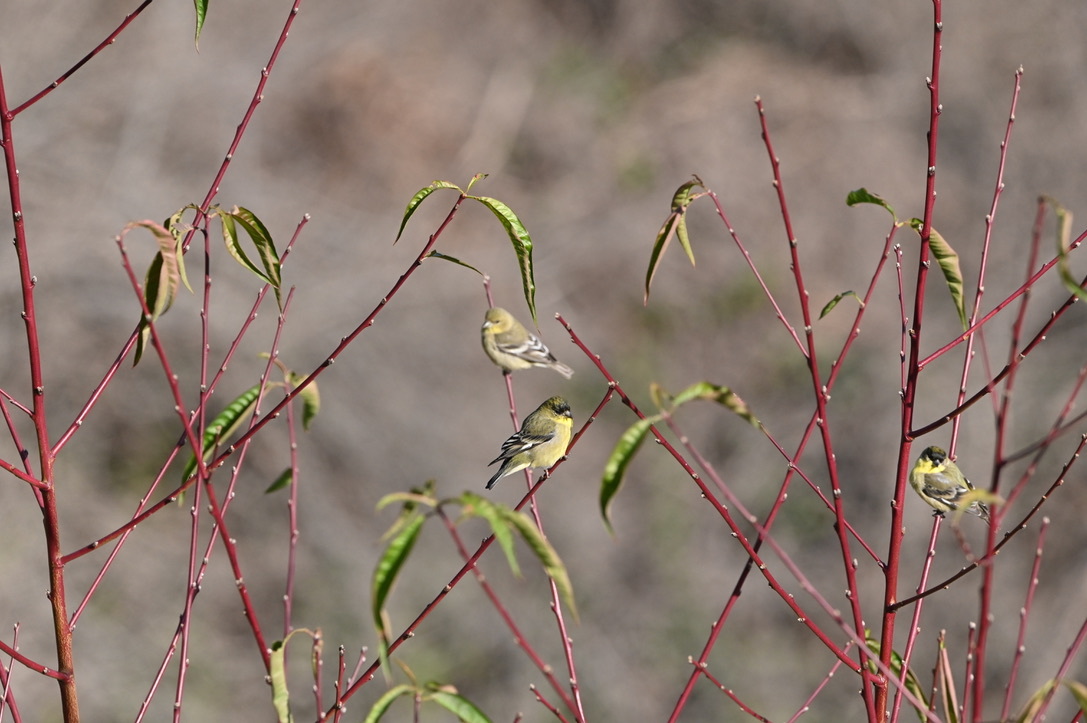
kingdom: Animalia
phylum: Chordata
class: Aves
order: Passeriformes
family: Fringillidae
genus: Spinus
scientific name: Spinus psaltria
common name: Lesser goldfinch
